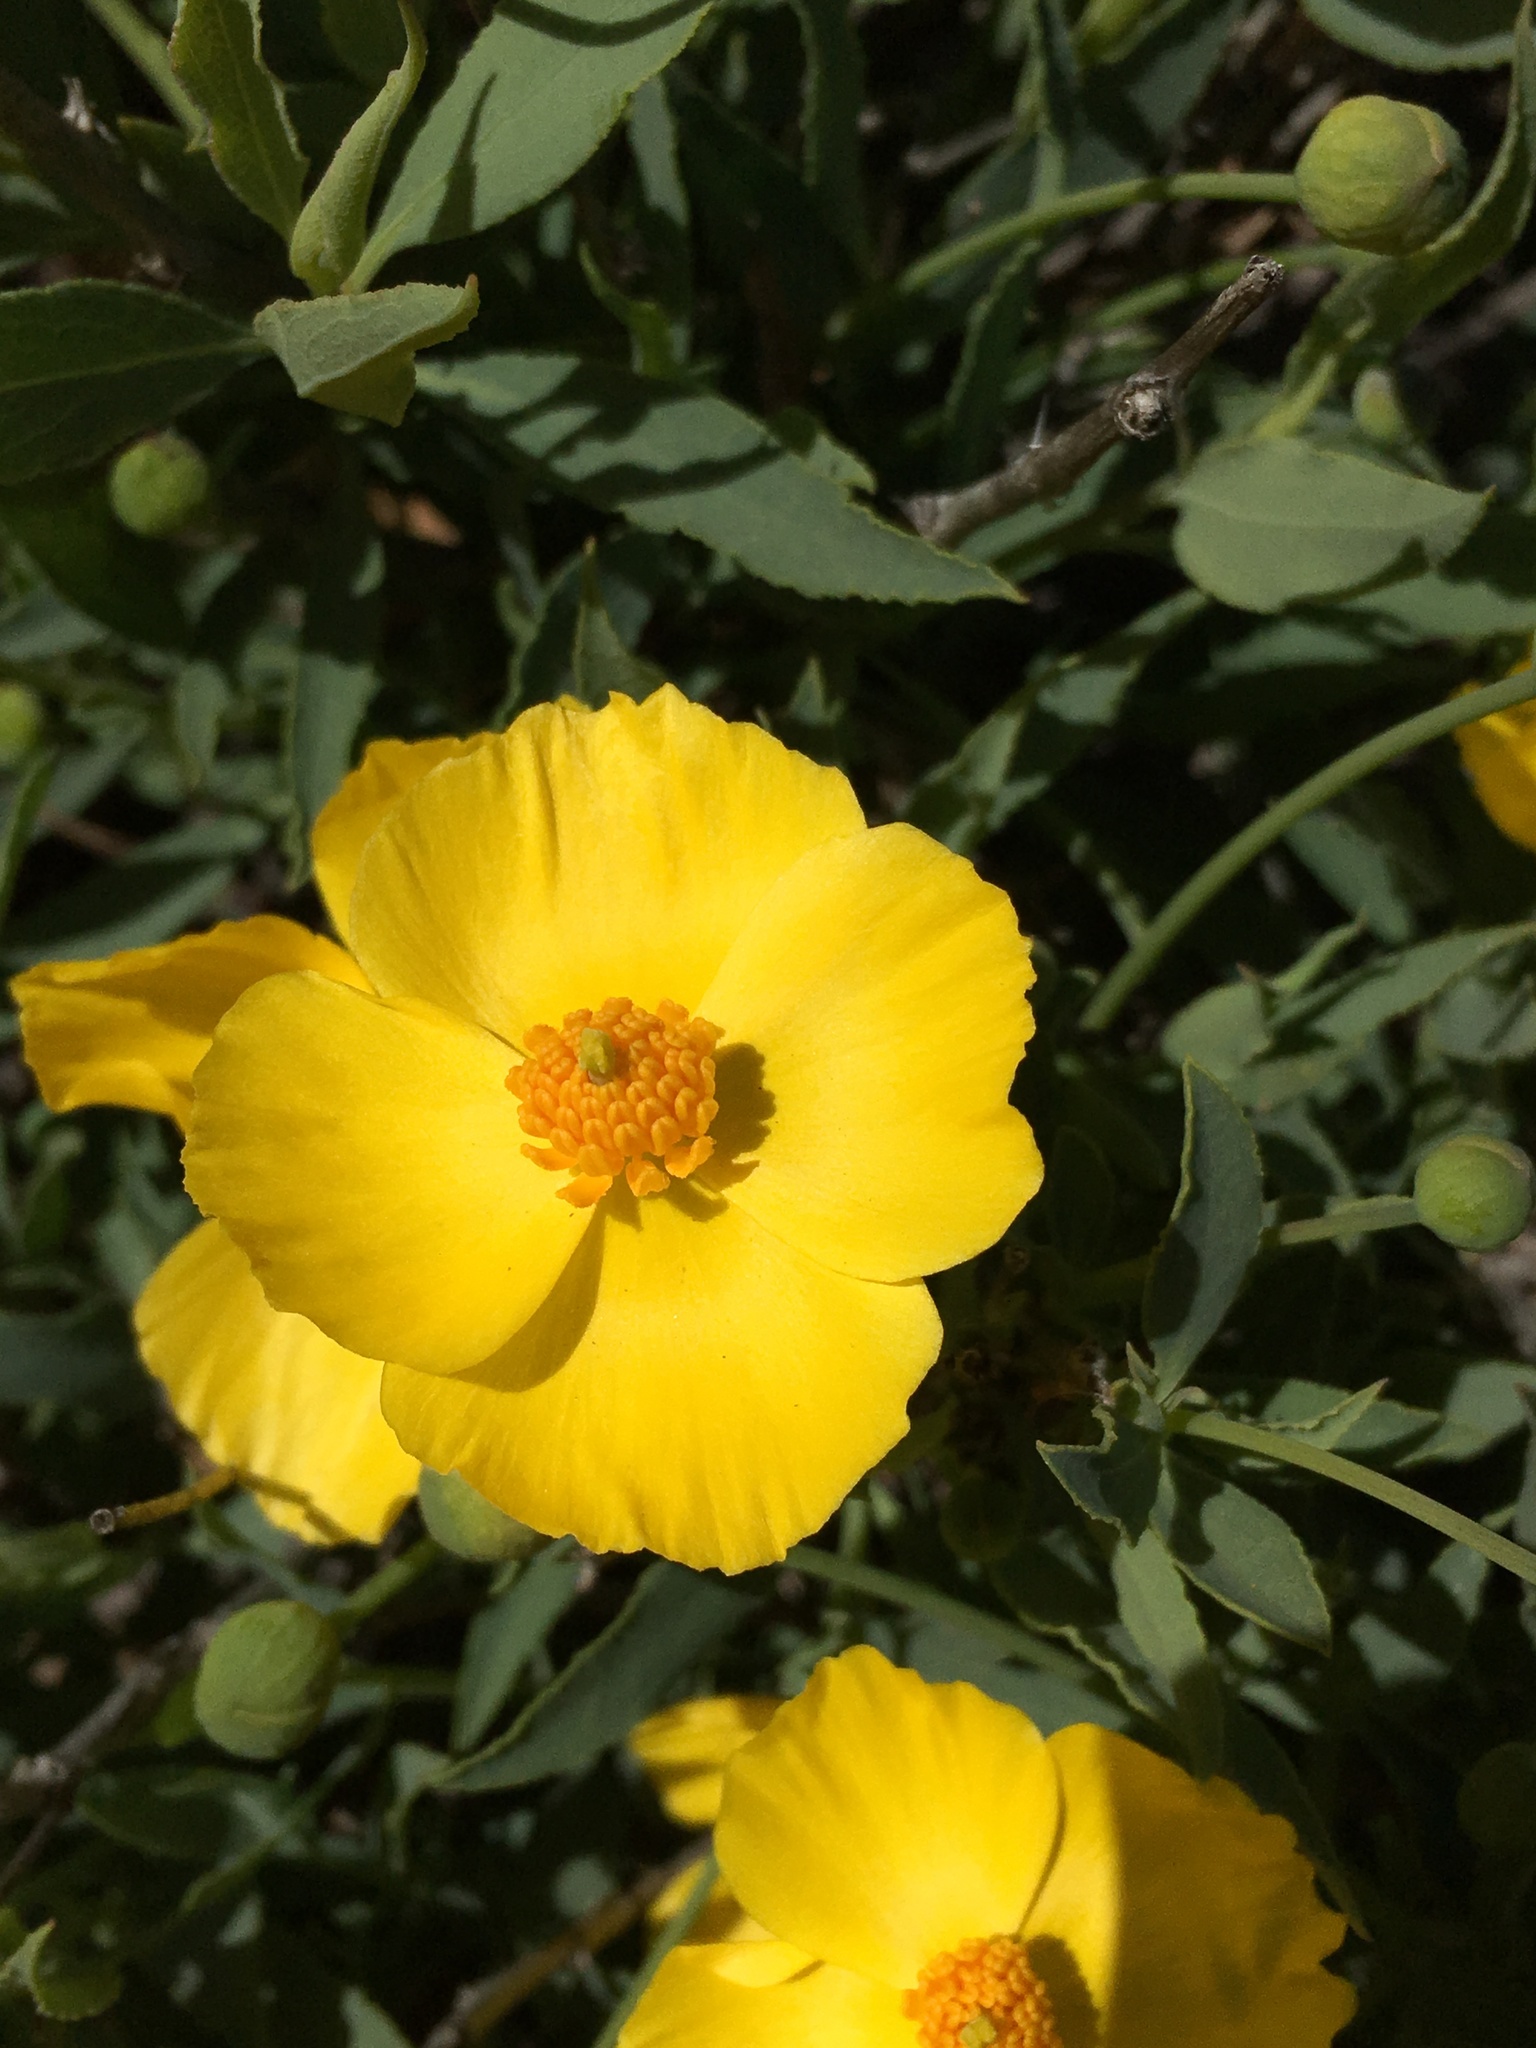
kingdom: Plantae
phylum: Tracheophyta
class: Magnoliopsida
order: Ranunculales
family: Papaveraceae
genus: Dendromecon
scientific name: Dendromecon rigida
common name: Tree poppy
